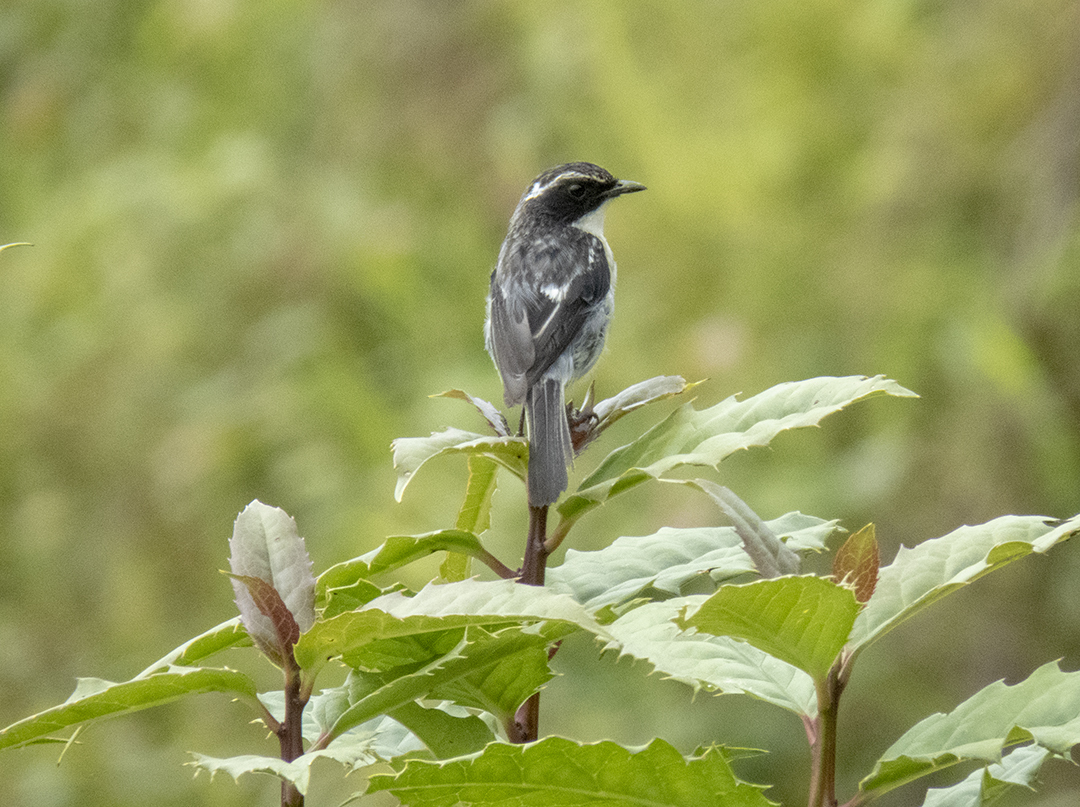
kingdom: Animalia
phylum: Chordata
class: Aves
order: Passeriformes
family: Muscicapidae
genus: Saxicola
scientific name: Saxicola ferreus
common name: Grey bush chat
